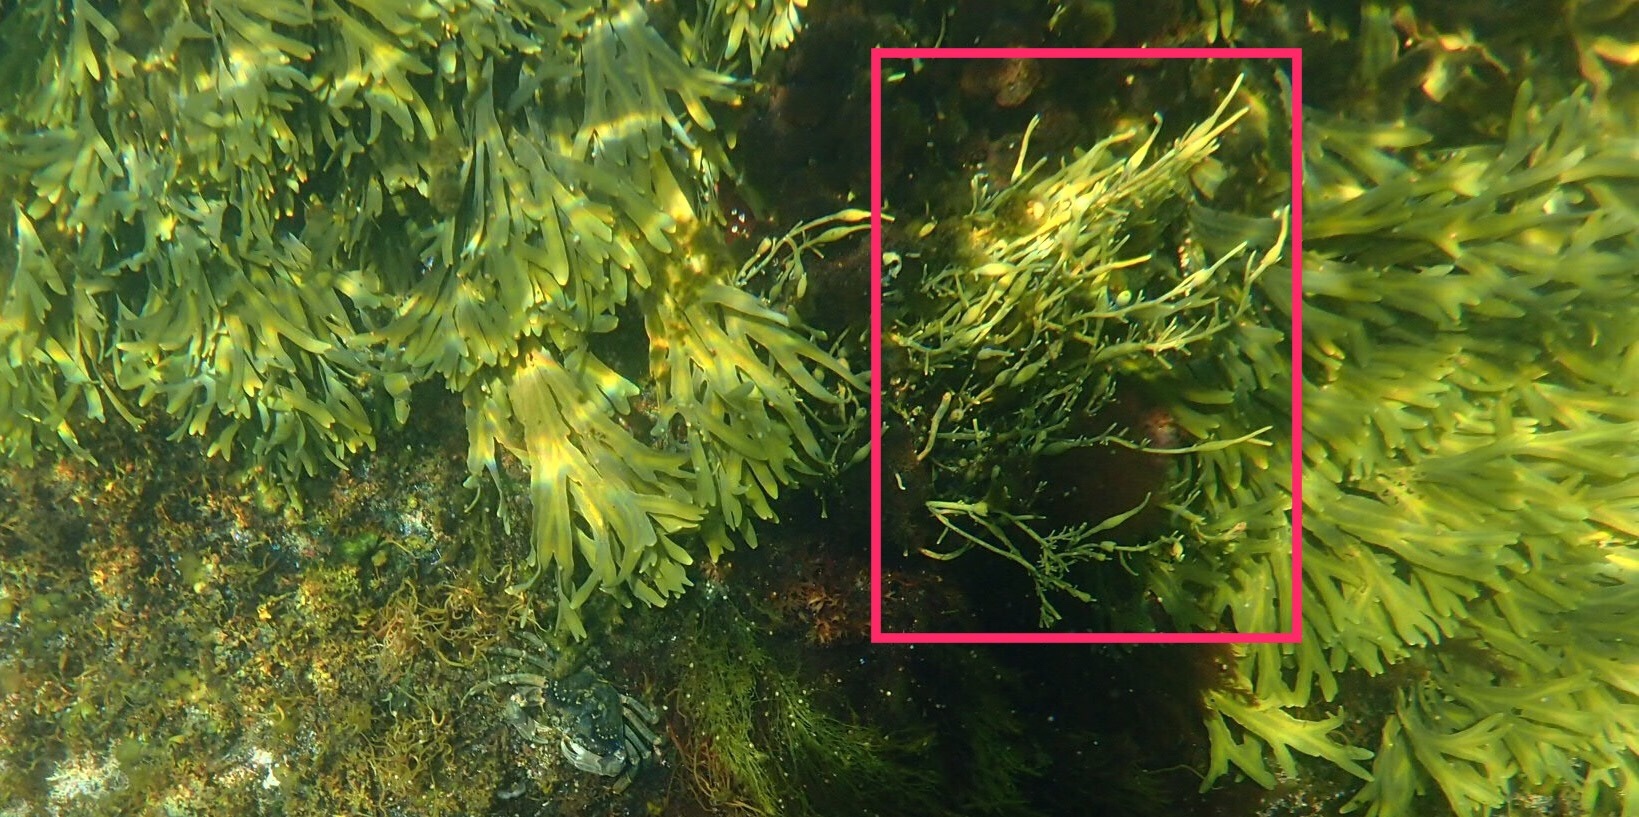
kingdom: Chromista
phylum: Ochrophyta
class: Phaeophyceae
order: Fucales
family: Fucaceae
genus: Ascophyllum
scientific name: Ascophyllum nodosum
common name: Knotted wrack
